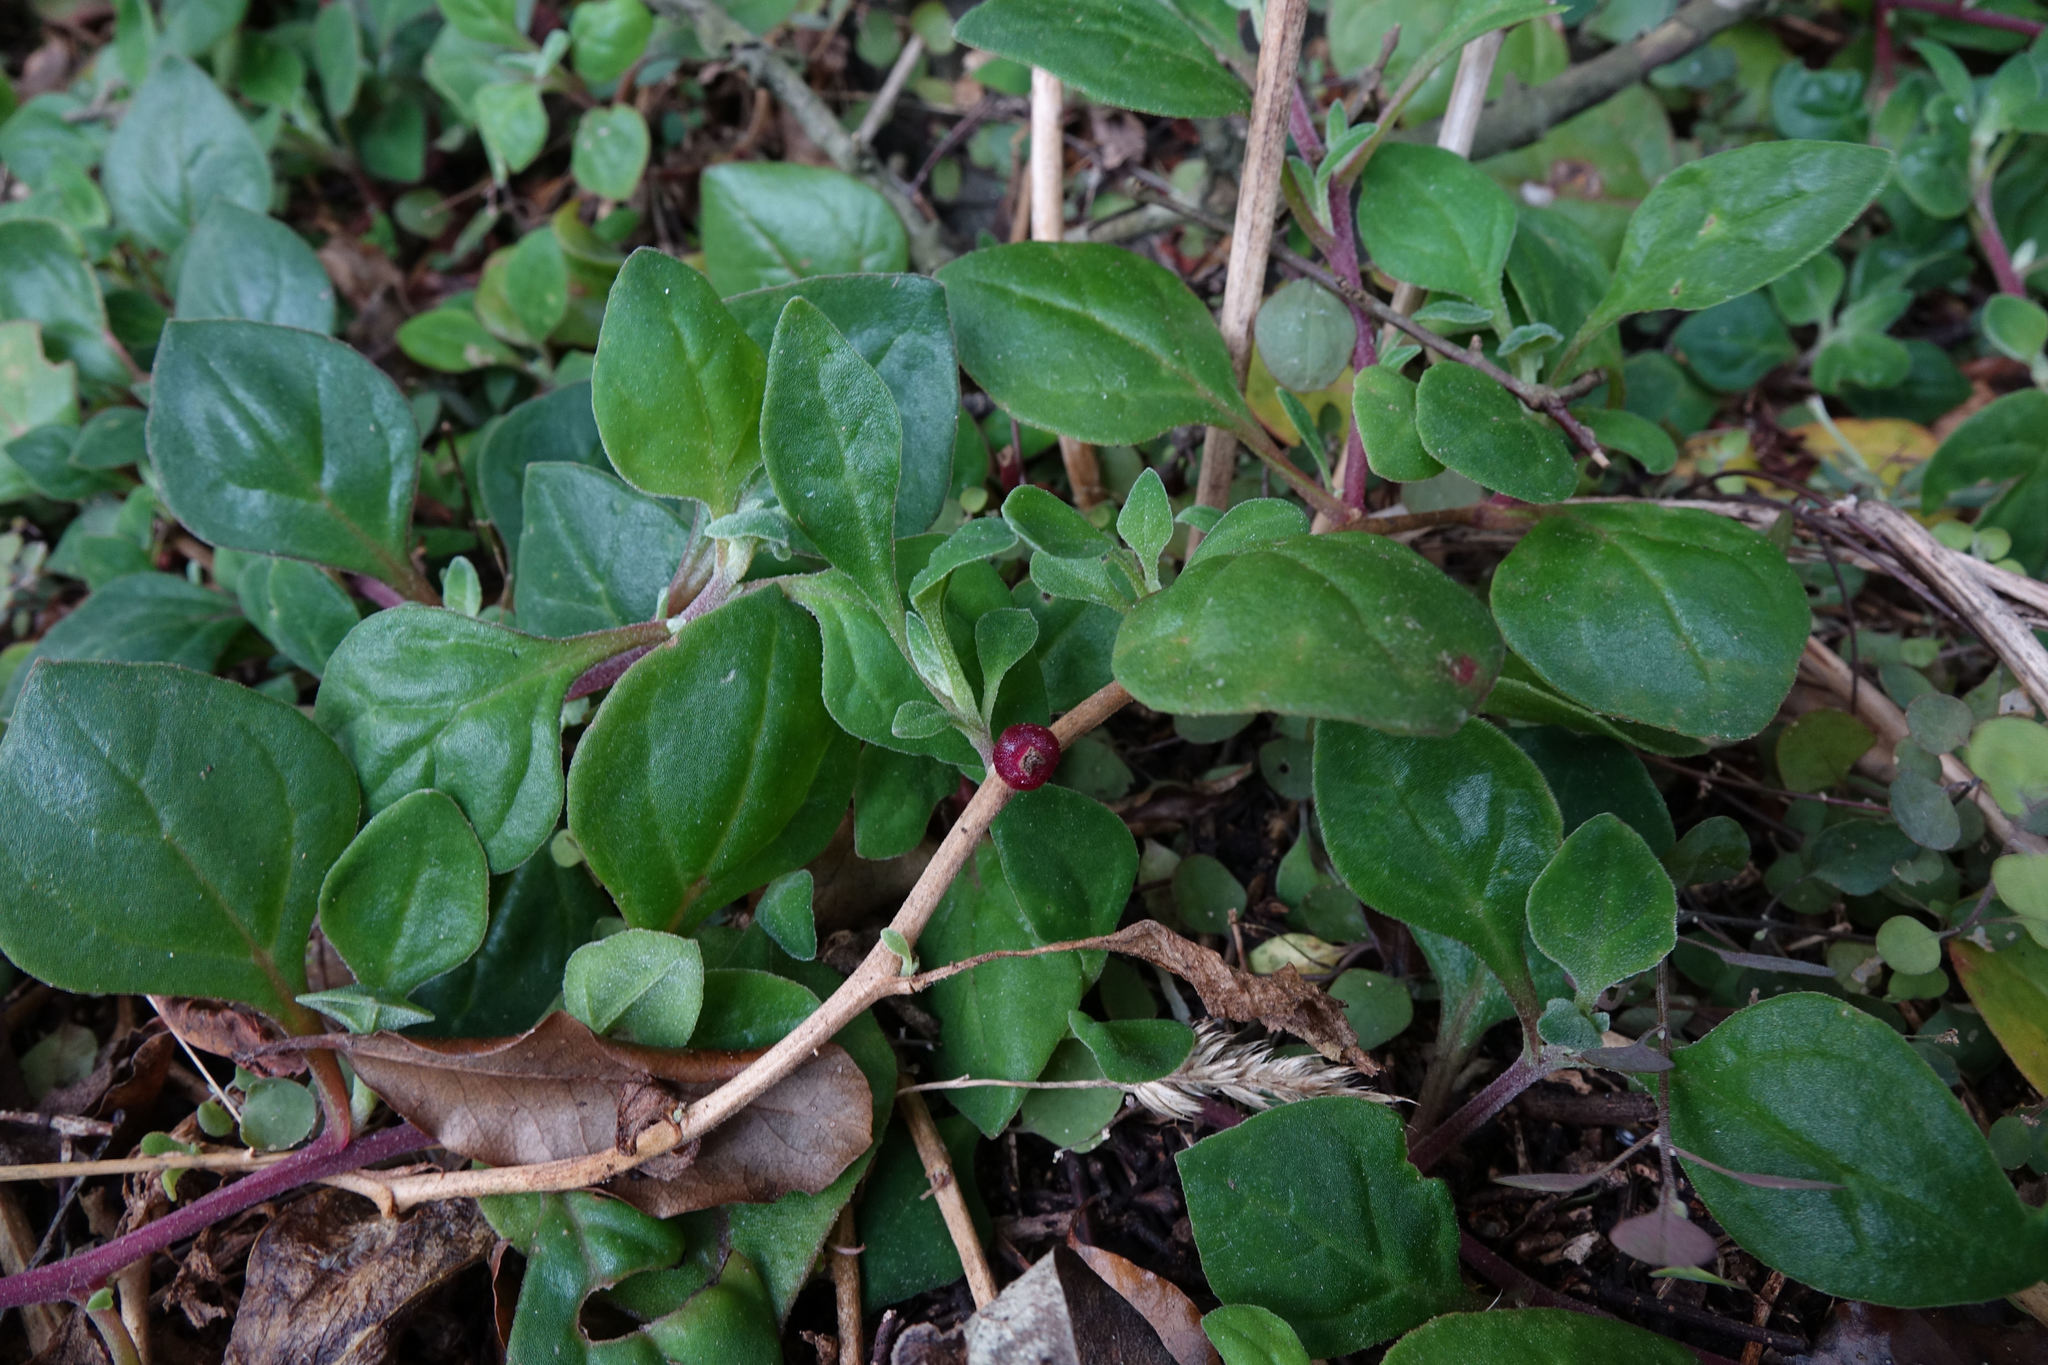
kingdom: Plantae
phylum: Tracheophyta
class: Magnoliopsida
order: Caryophyllales
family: Aizoaceae
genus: Tetragonia
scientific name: Tetragonia implexicoma
